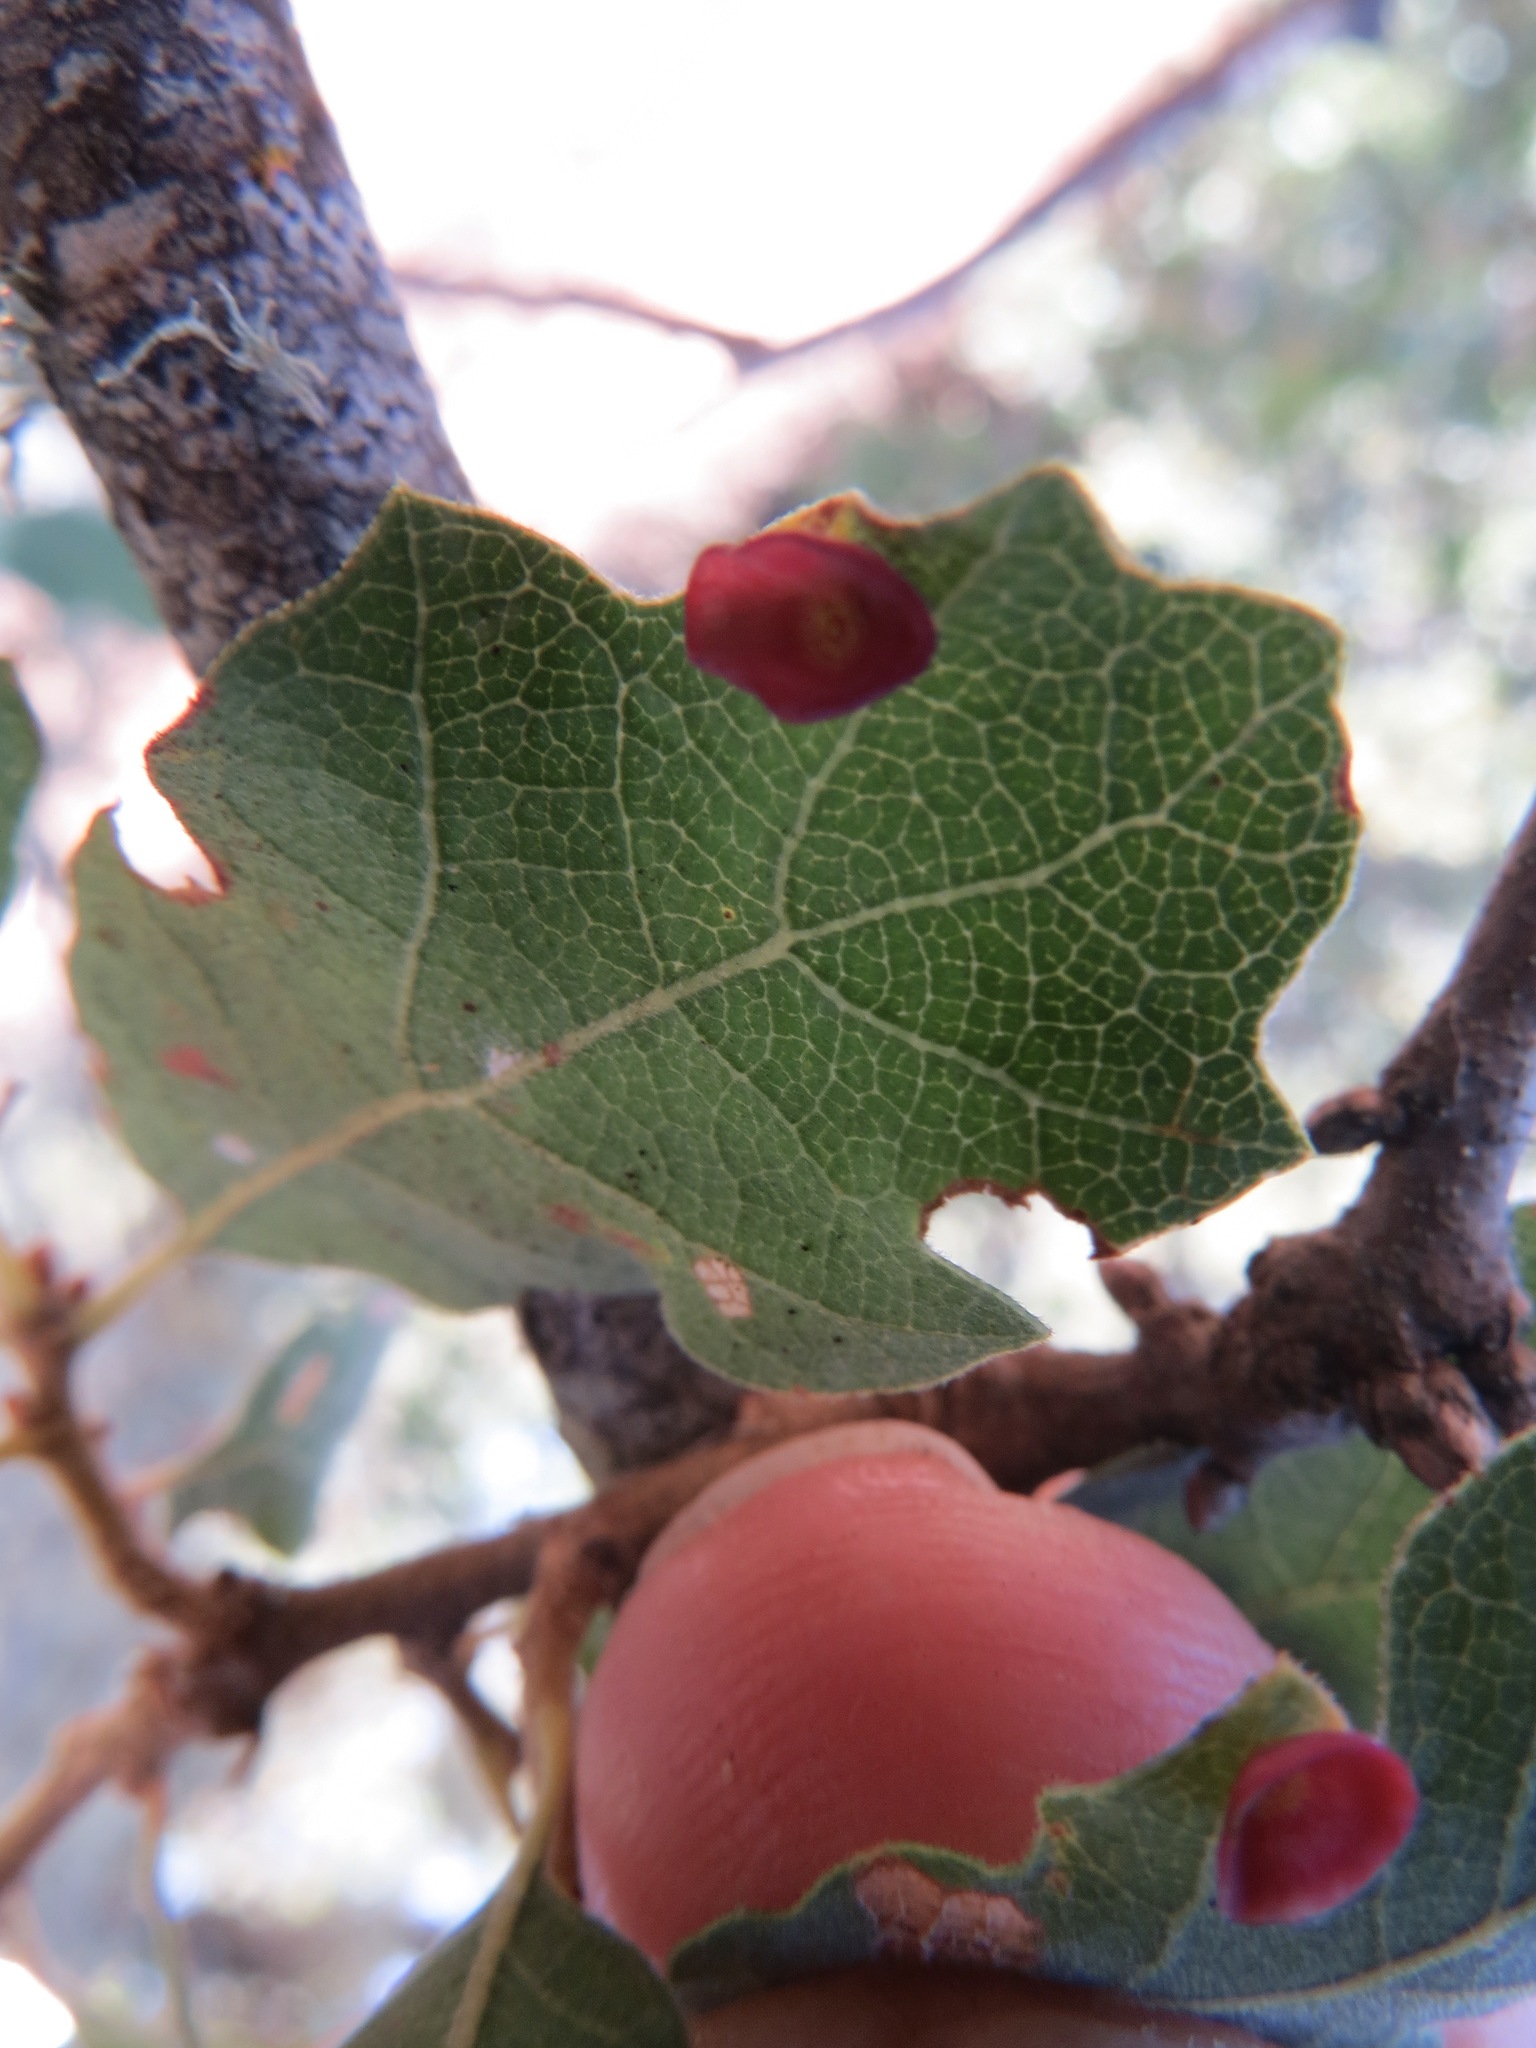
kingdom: Animalia
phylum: Arthropoda
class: Insecta
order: Hymenoptera
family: Cynipidae
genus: Andricus
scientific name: Andricus
